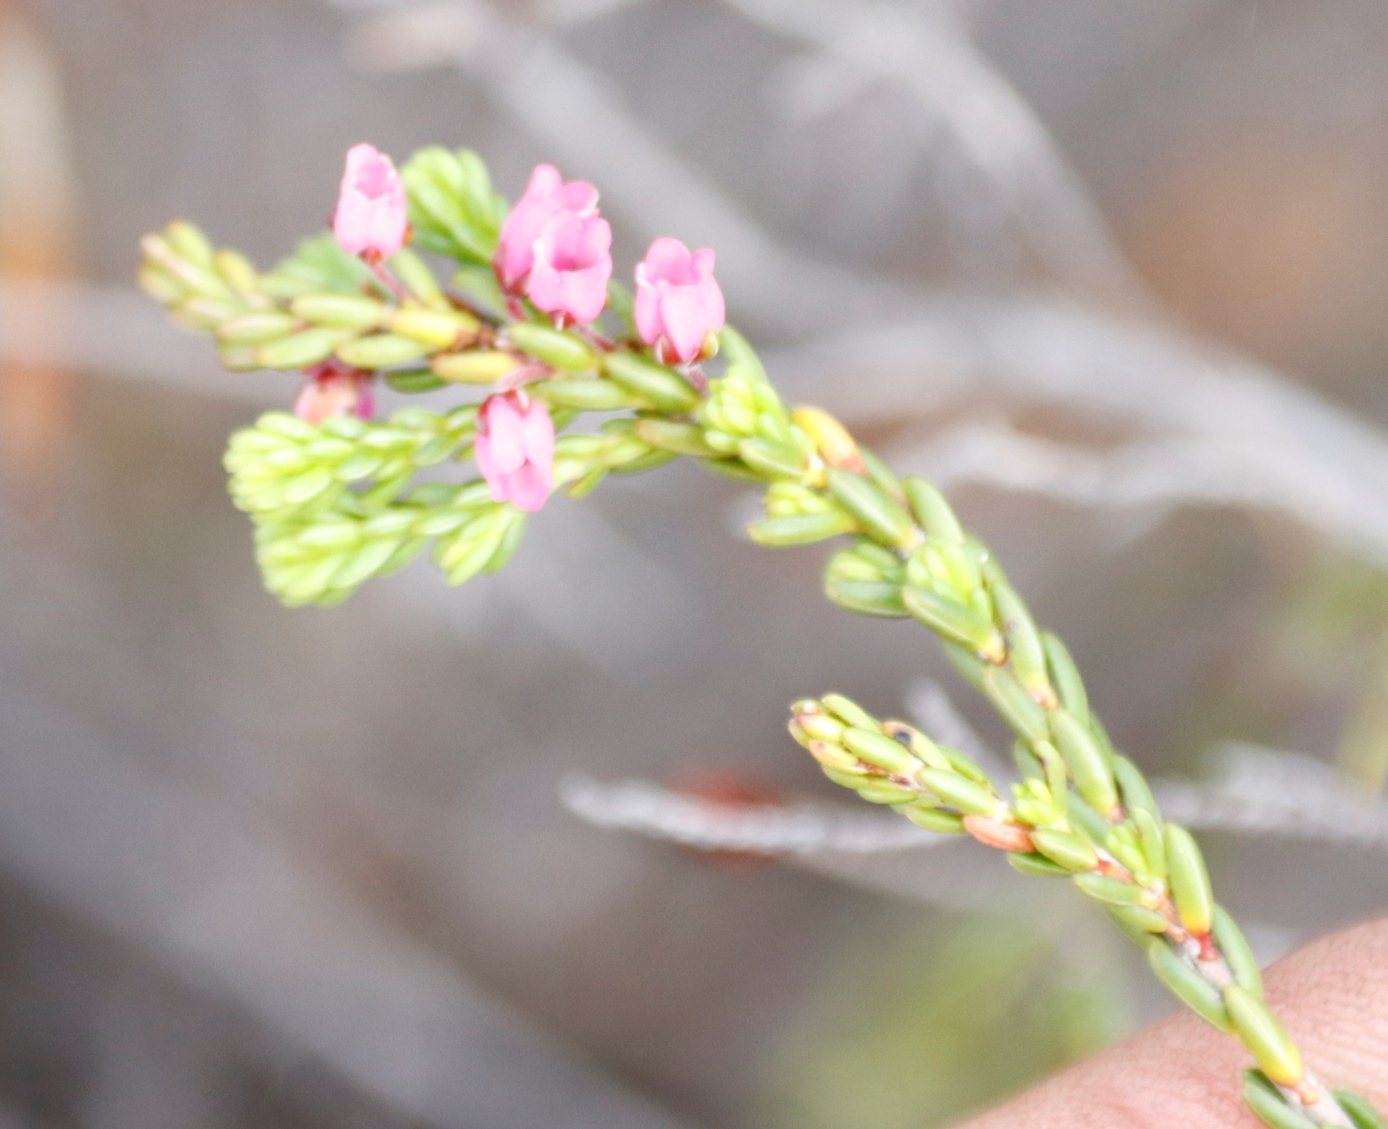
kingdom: Plantae
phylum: Tracheophyta
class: Magnoliopsida
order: Ericales
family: Ericaceae
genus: Erica
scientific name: Erica pulchella
